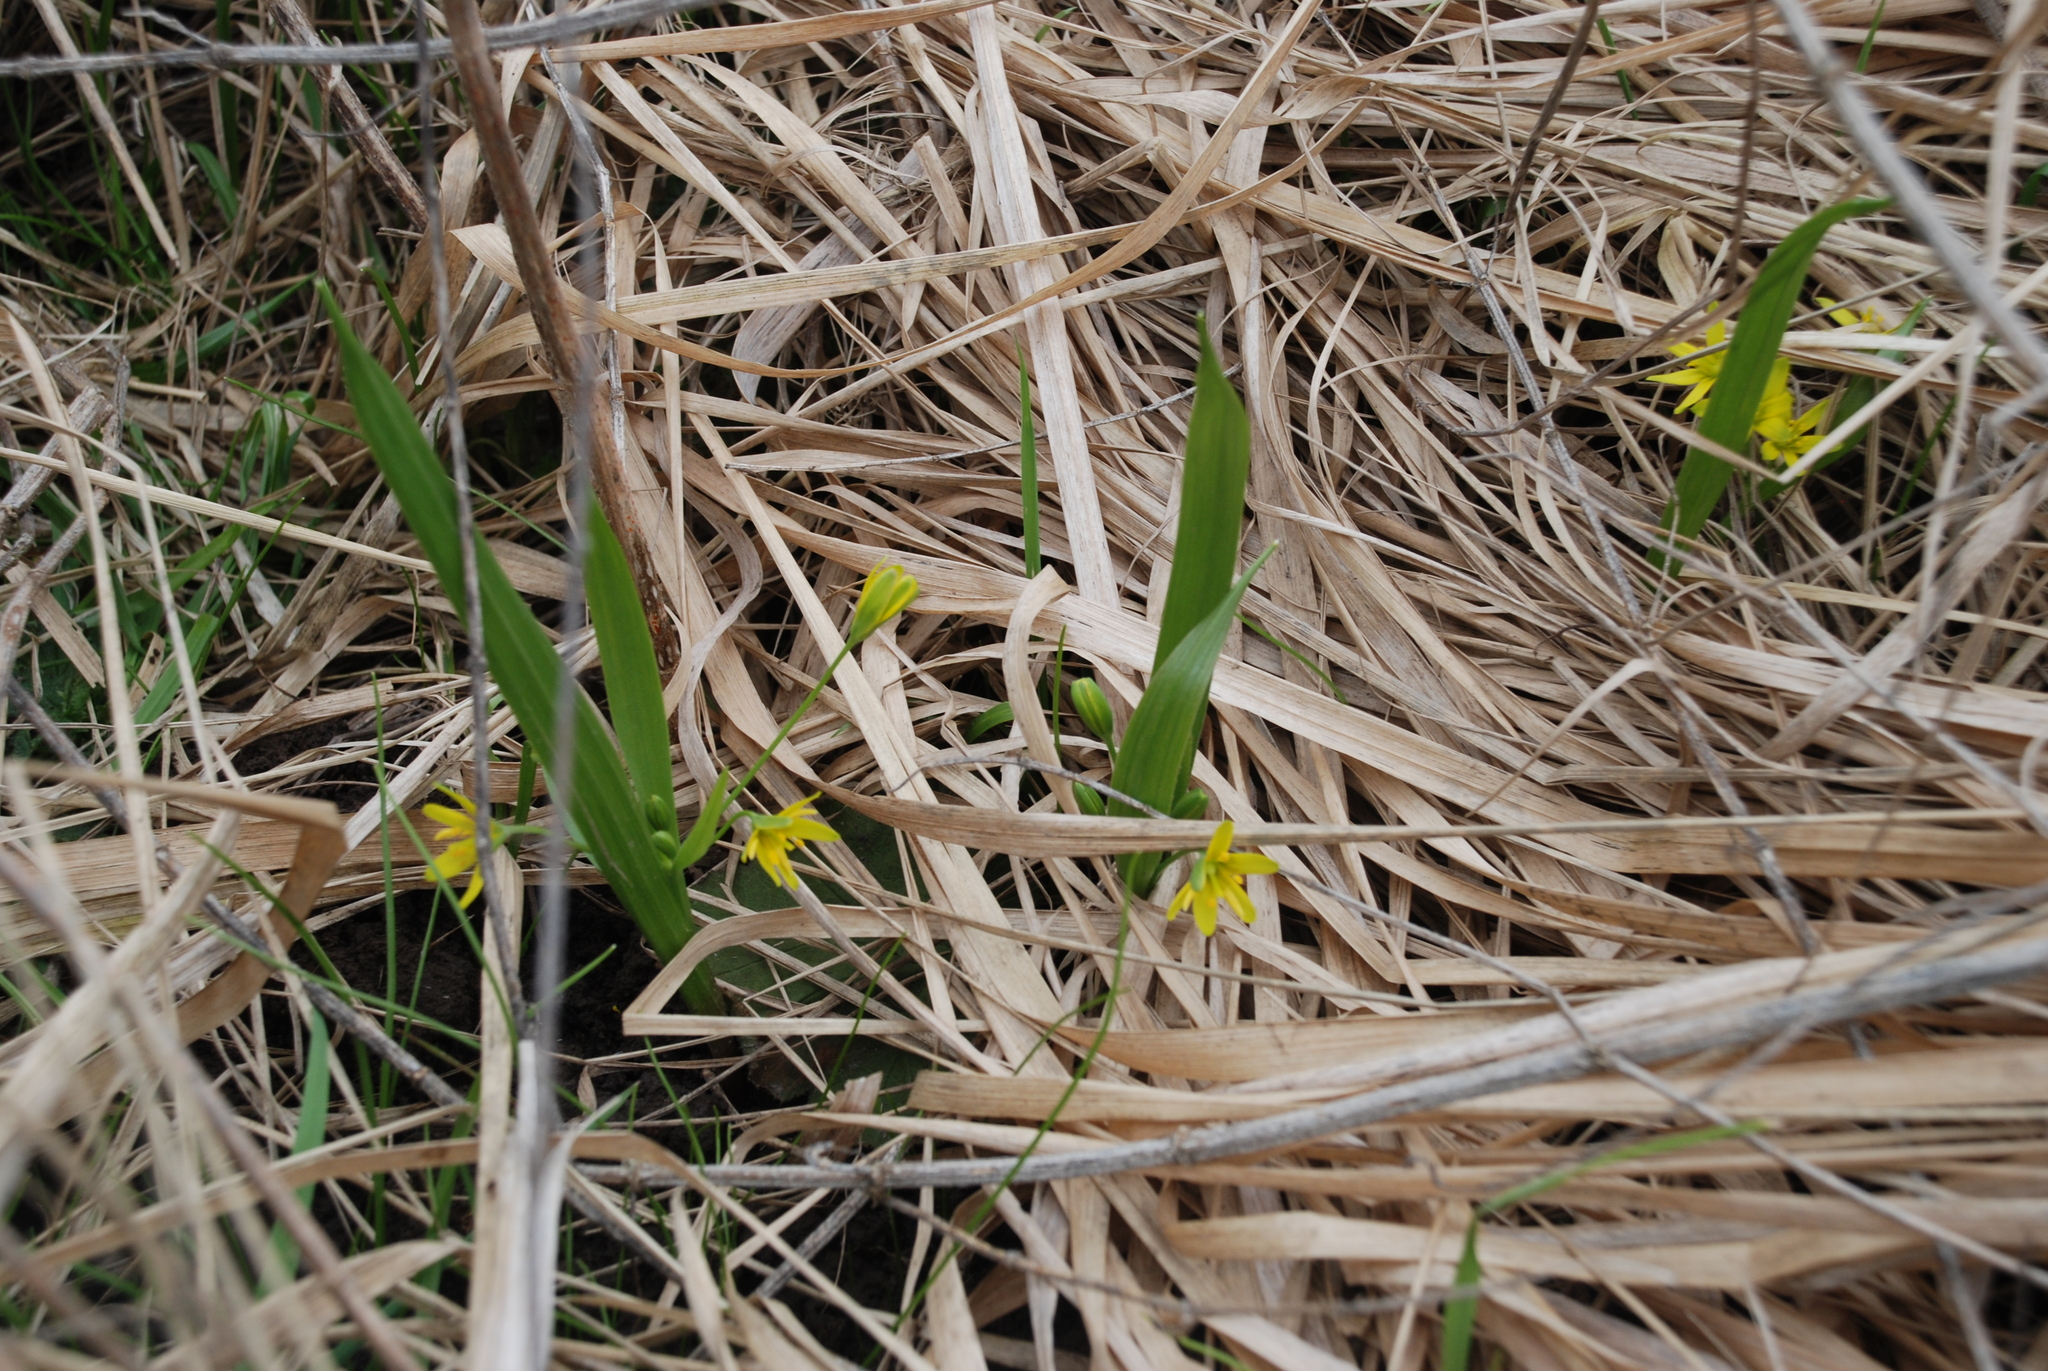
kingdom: Plantae
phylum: Tracheophyta
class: Liliopsida
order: Liliales
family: Liliaceae
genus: Gagea
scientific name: Gagea lutea
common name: Yellow star-of-bethlehem
